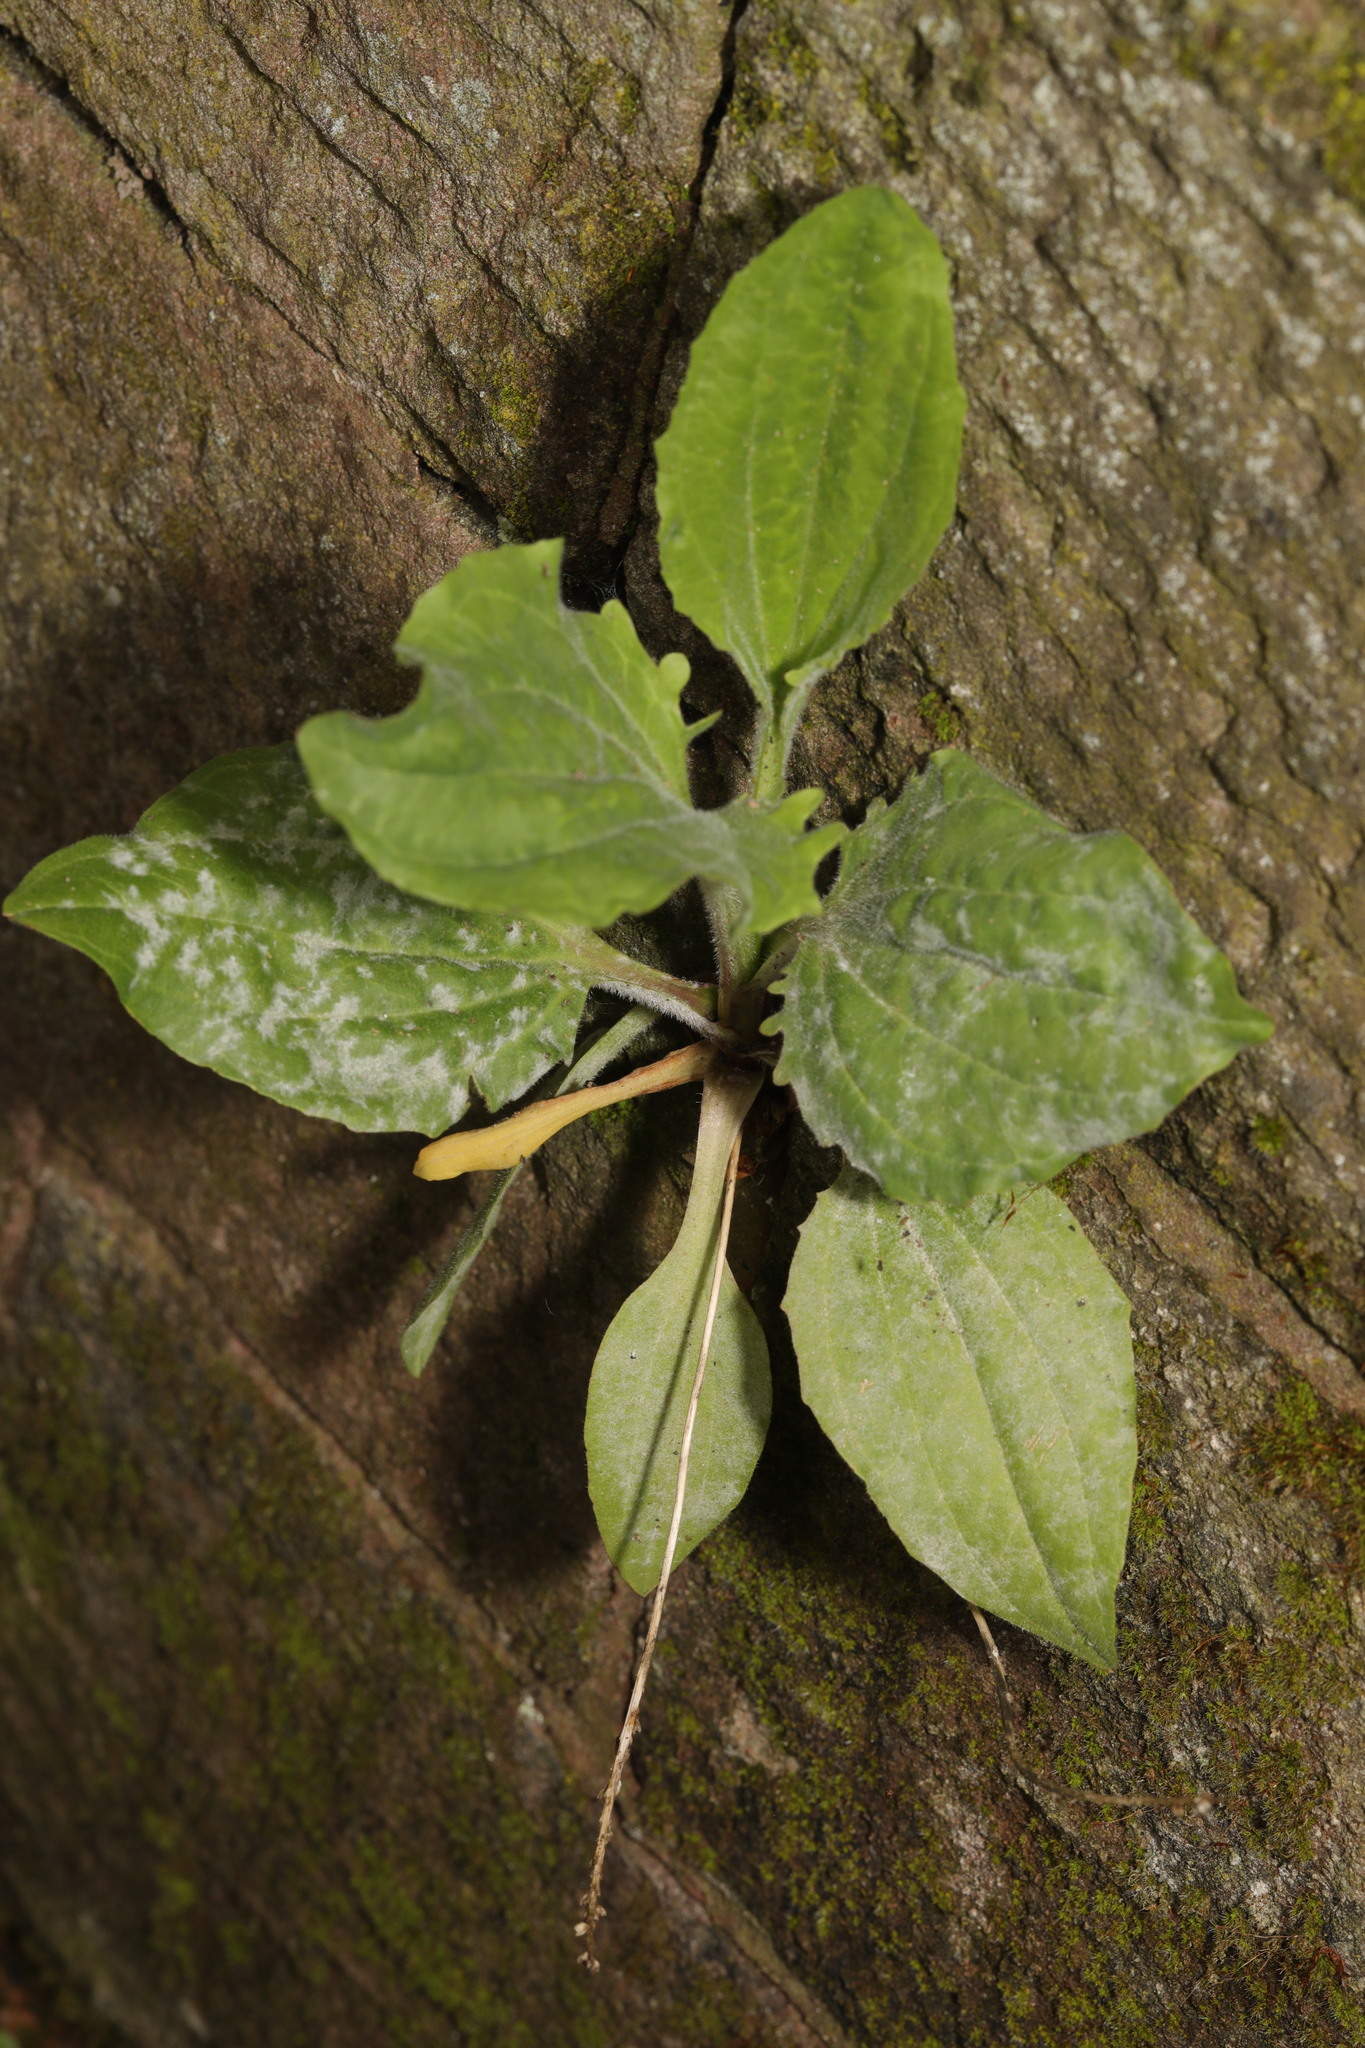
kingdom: Plantae
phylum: Tracheophyta
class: Magnoliopsida
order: Lamiales
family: Plantaginaceae
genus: Plantago
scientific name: Plantago major
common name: Common plantain
